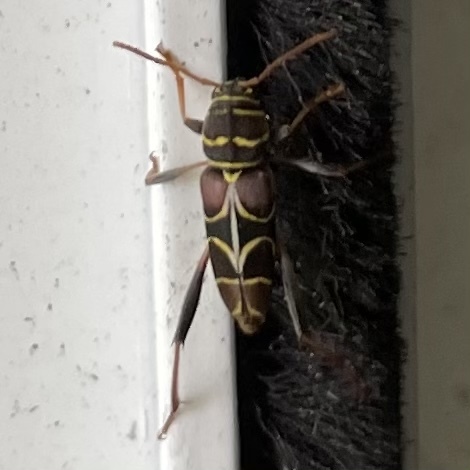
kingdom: Animalia
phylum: Arthropoda
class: Insecta
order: Coleoptera
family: Cerambycidae
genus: Neoclytus
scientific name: Neoclytus scutellaris
